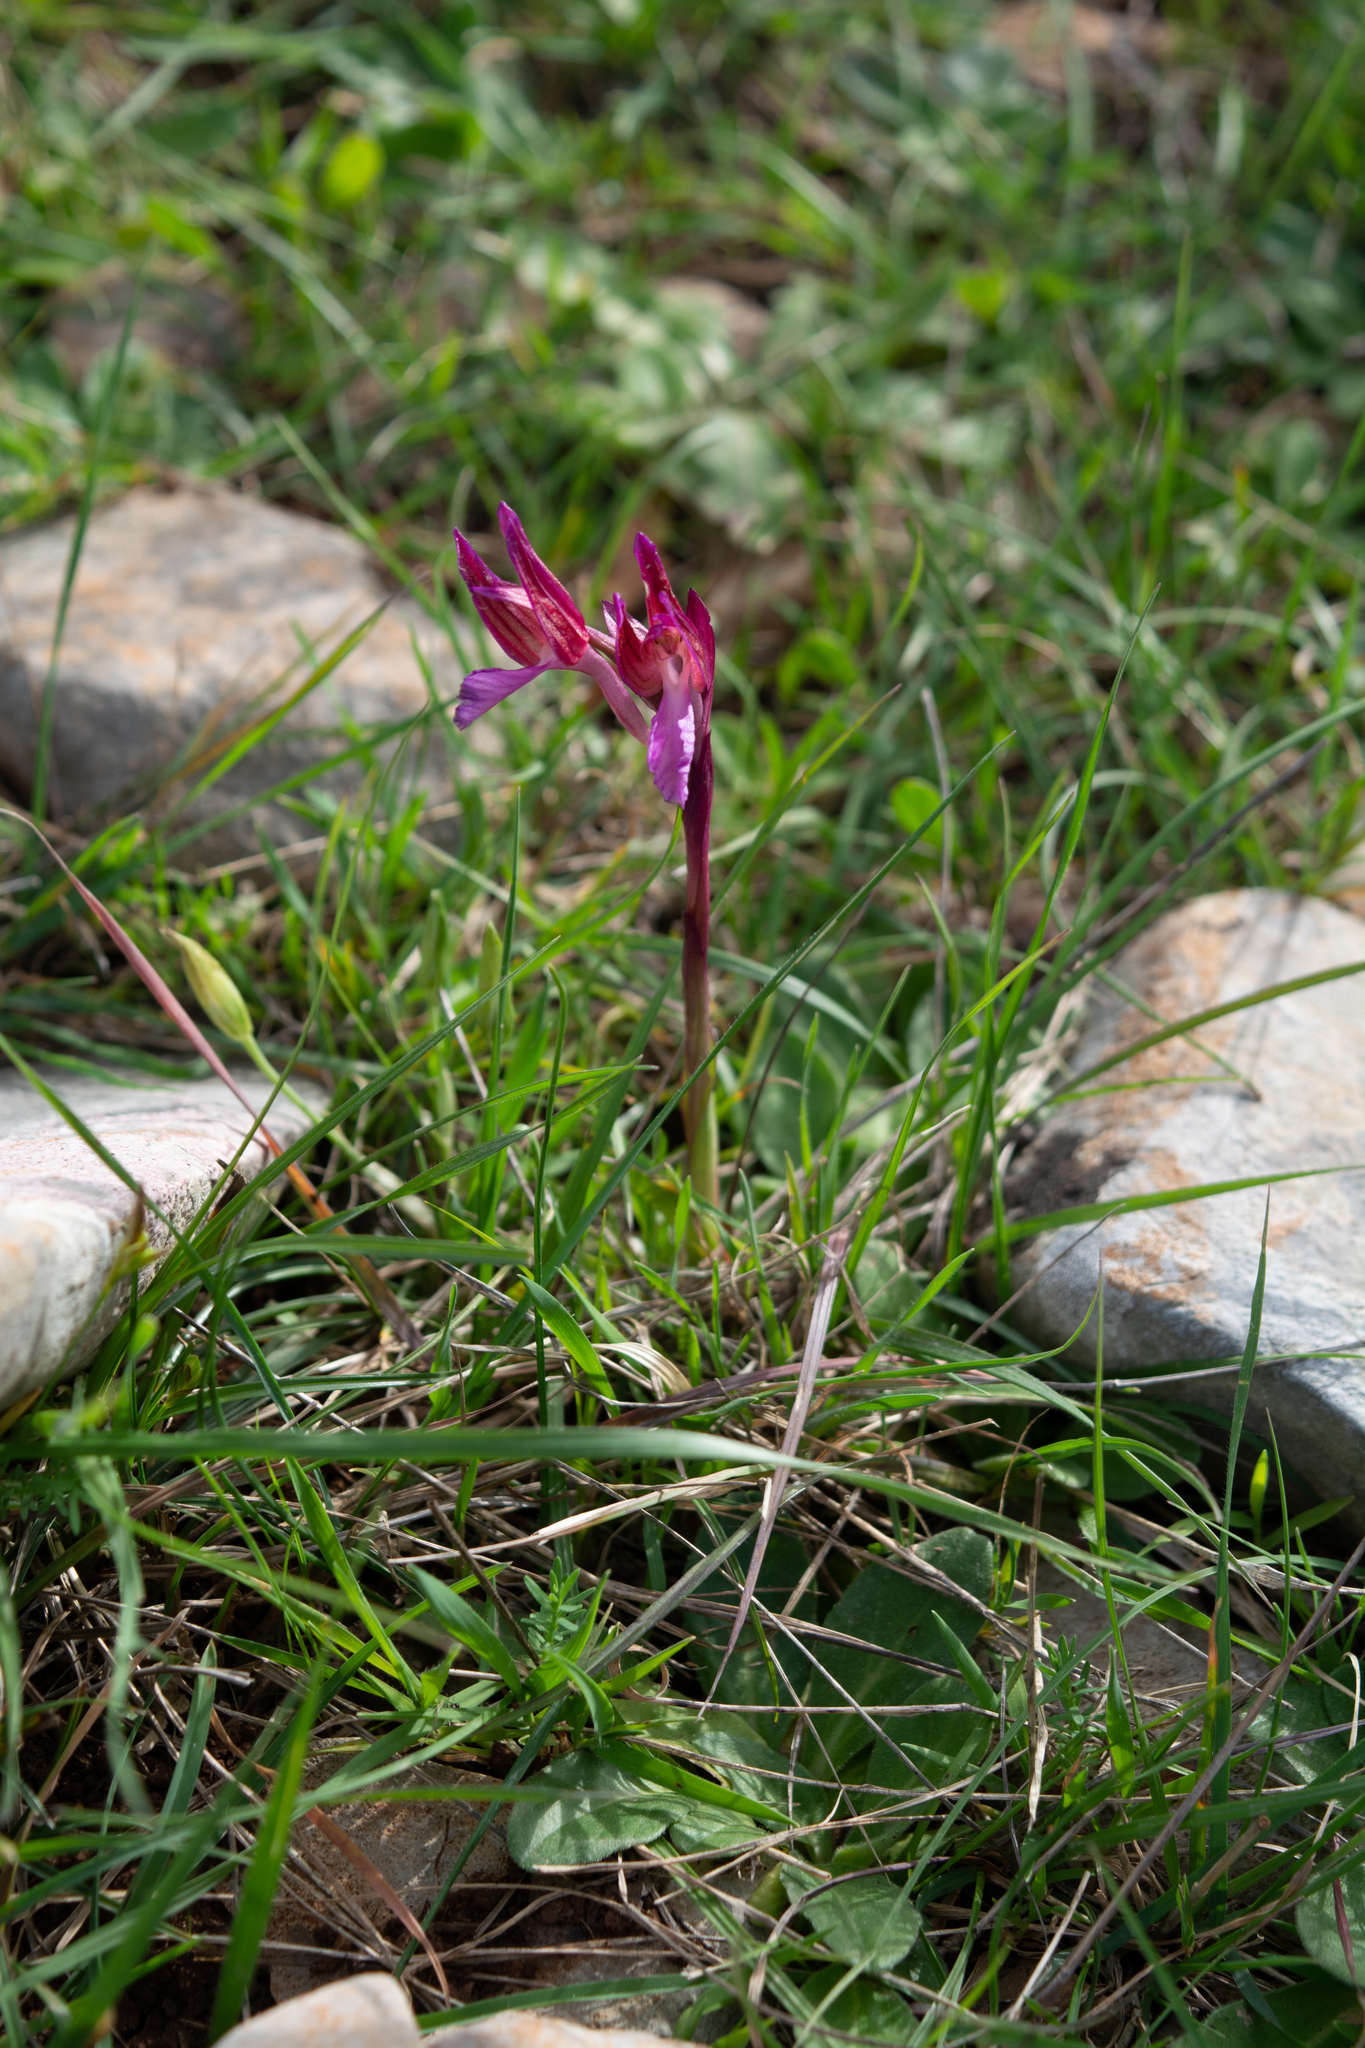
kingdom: Plantae
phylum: Tracheophyta
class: Liliopsida
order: Asparagales
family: Orchidaceae
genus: Anacamptis
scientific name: Anacamptis papilionacea
